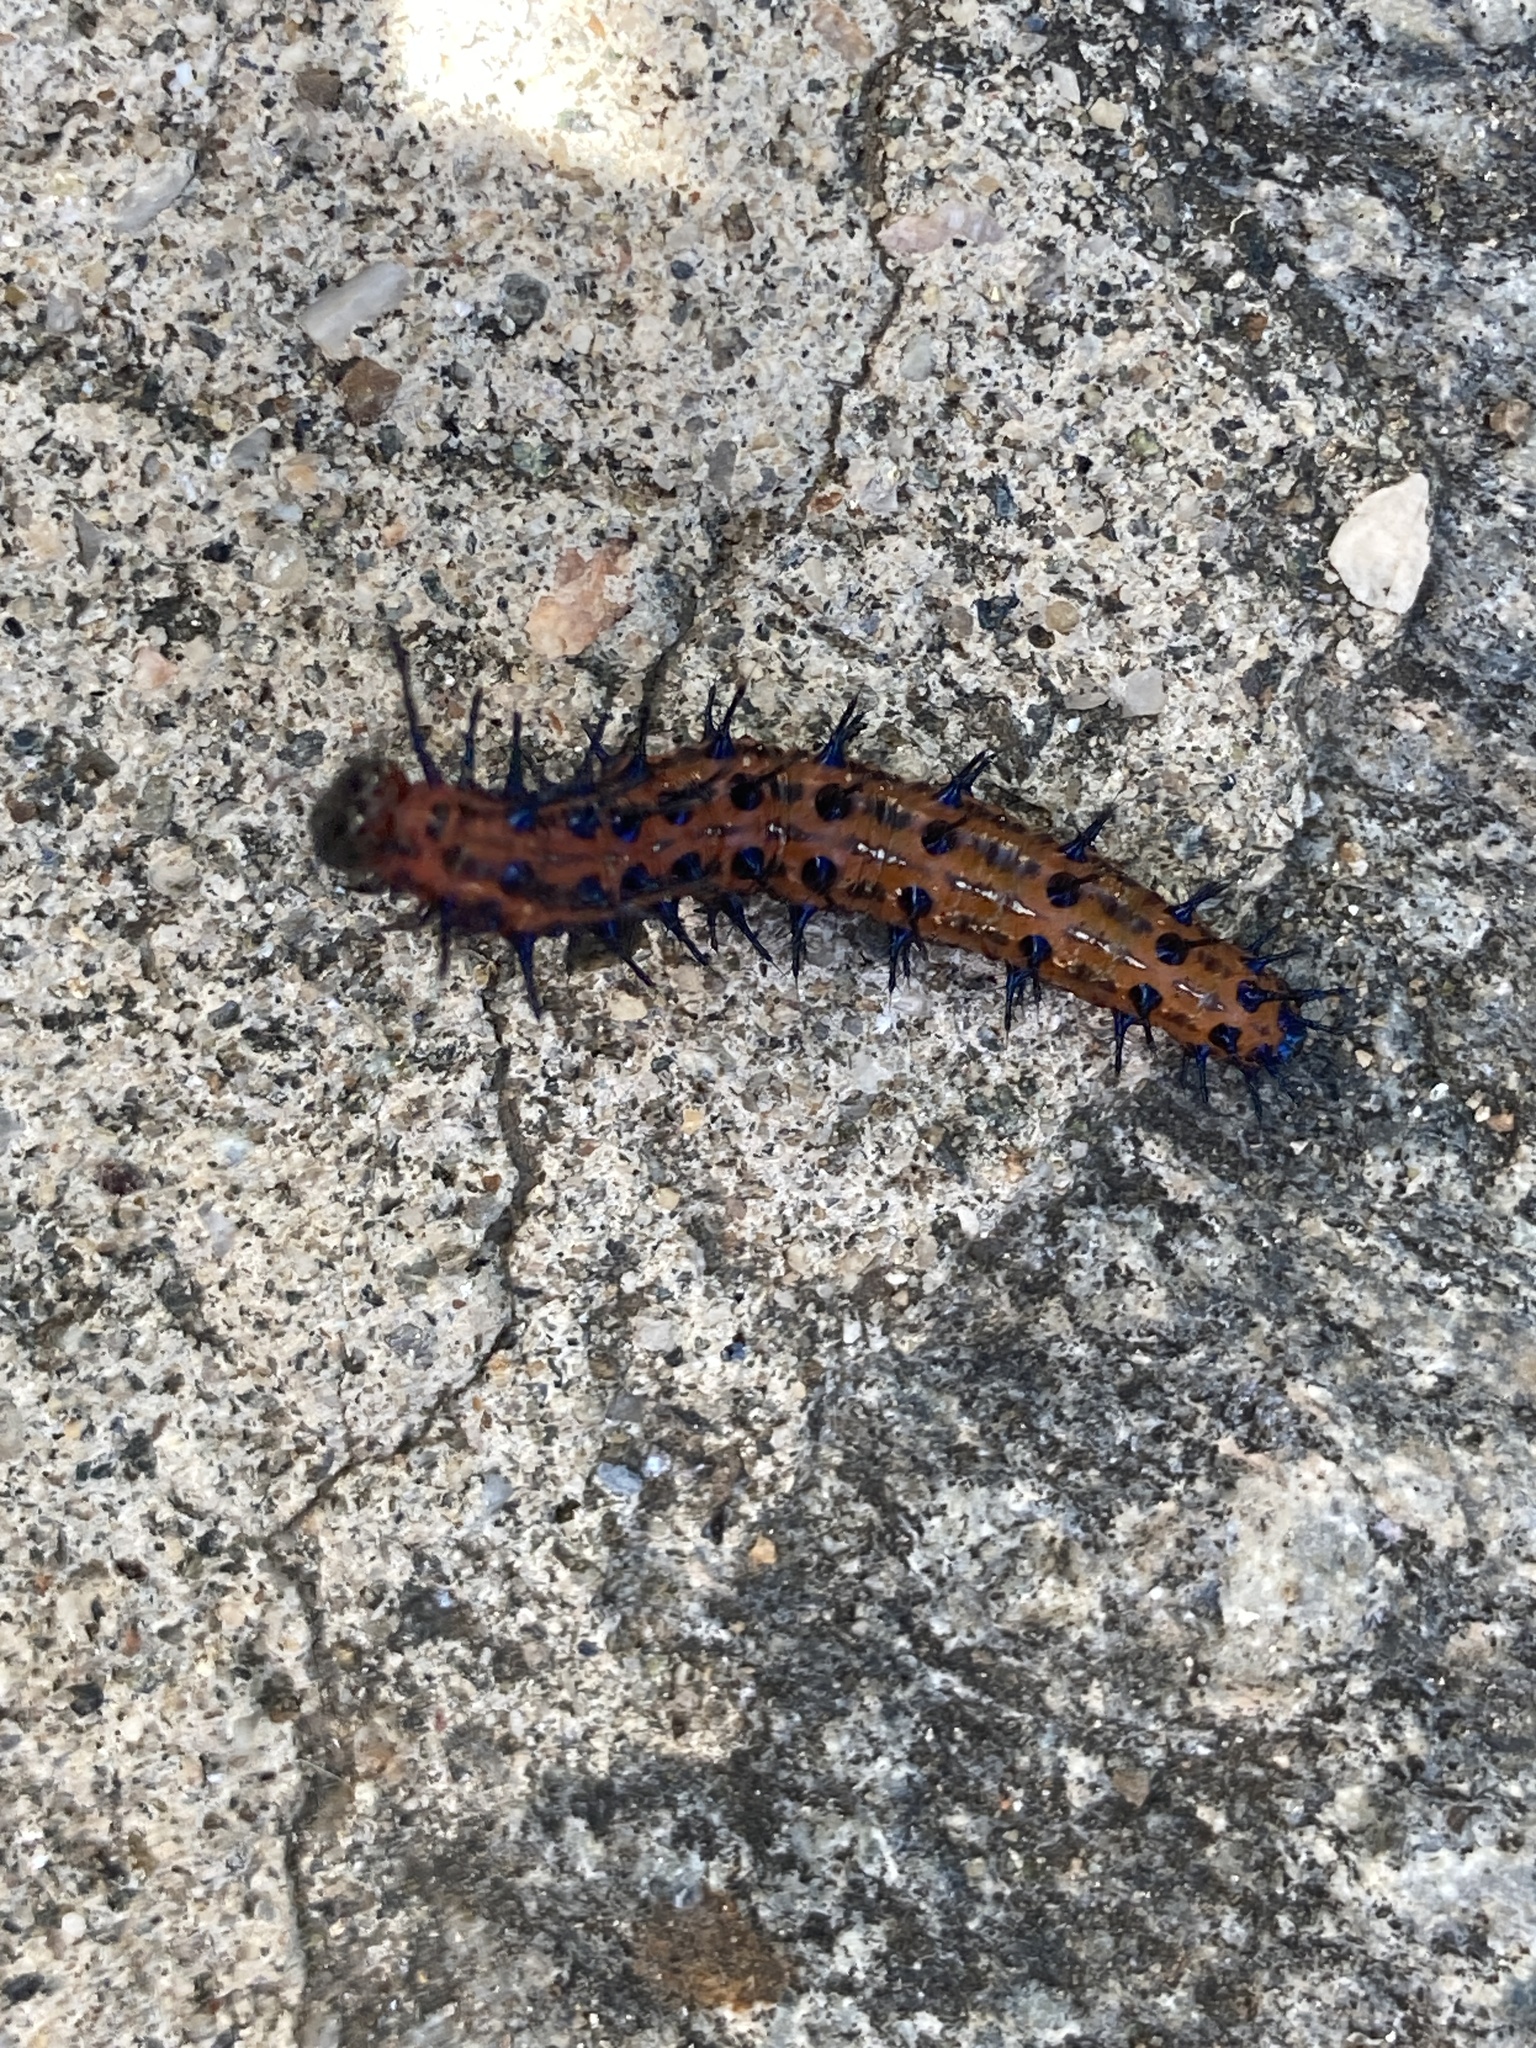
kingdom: Animalia
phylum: Arthropoda
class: Insecta
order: Lepidoptera
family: Nymphalidae
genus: Euptoieta
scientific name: Euptoieta hortensia
